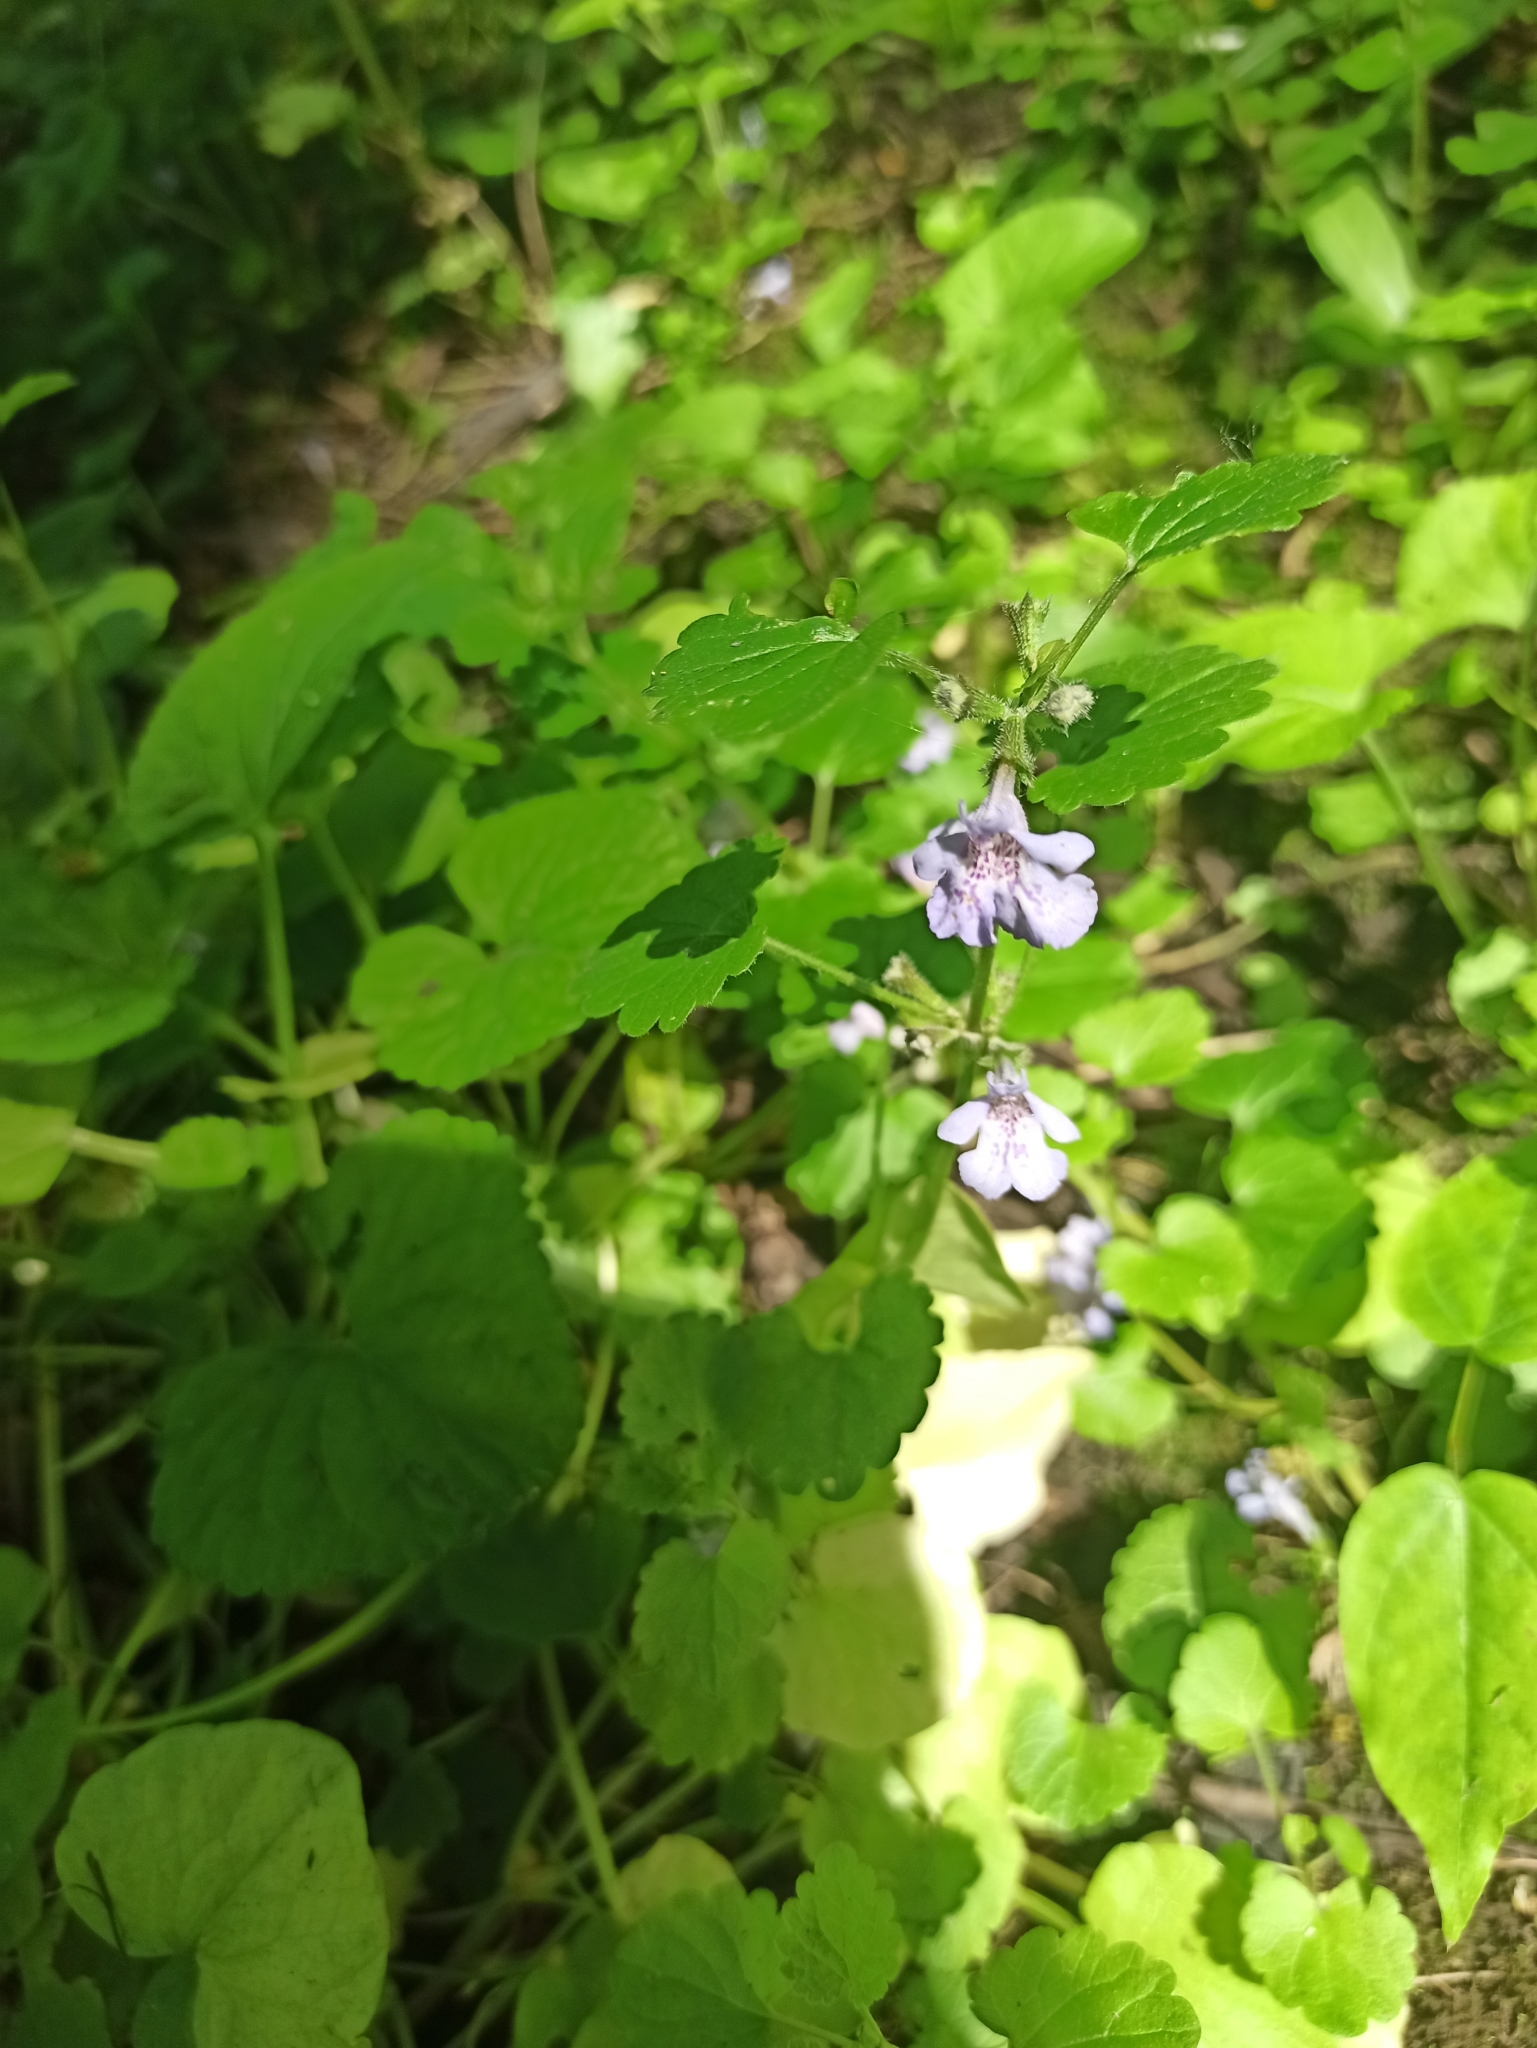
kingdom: Plantae
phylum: Tracheophyta
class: Magnoliopsida
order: Lamiales
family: Lamiaceae
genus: Glechoma
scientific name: Glechoma hederacea
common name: Ground ivy
